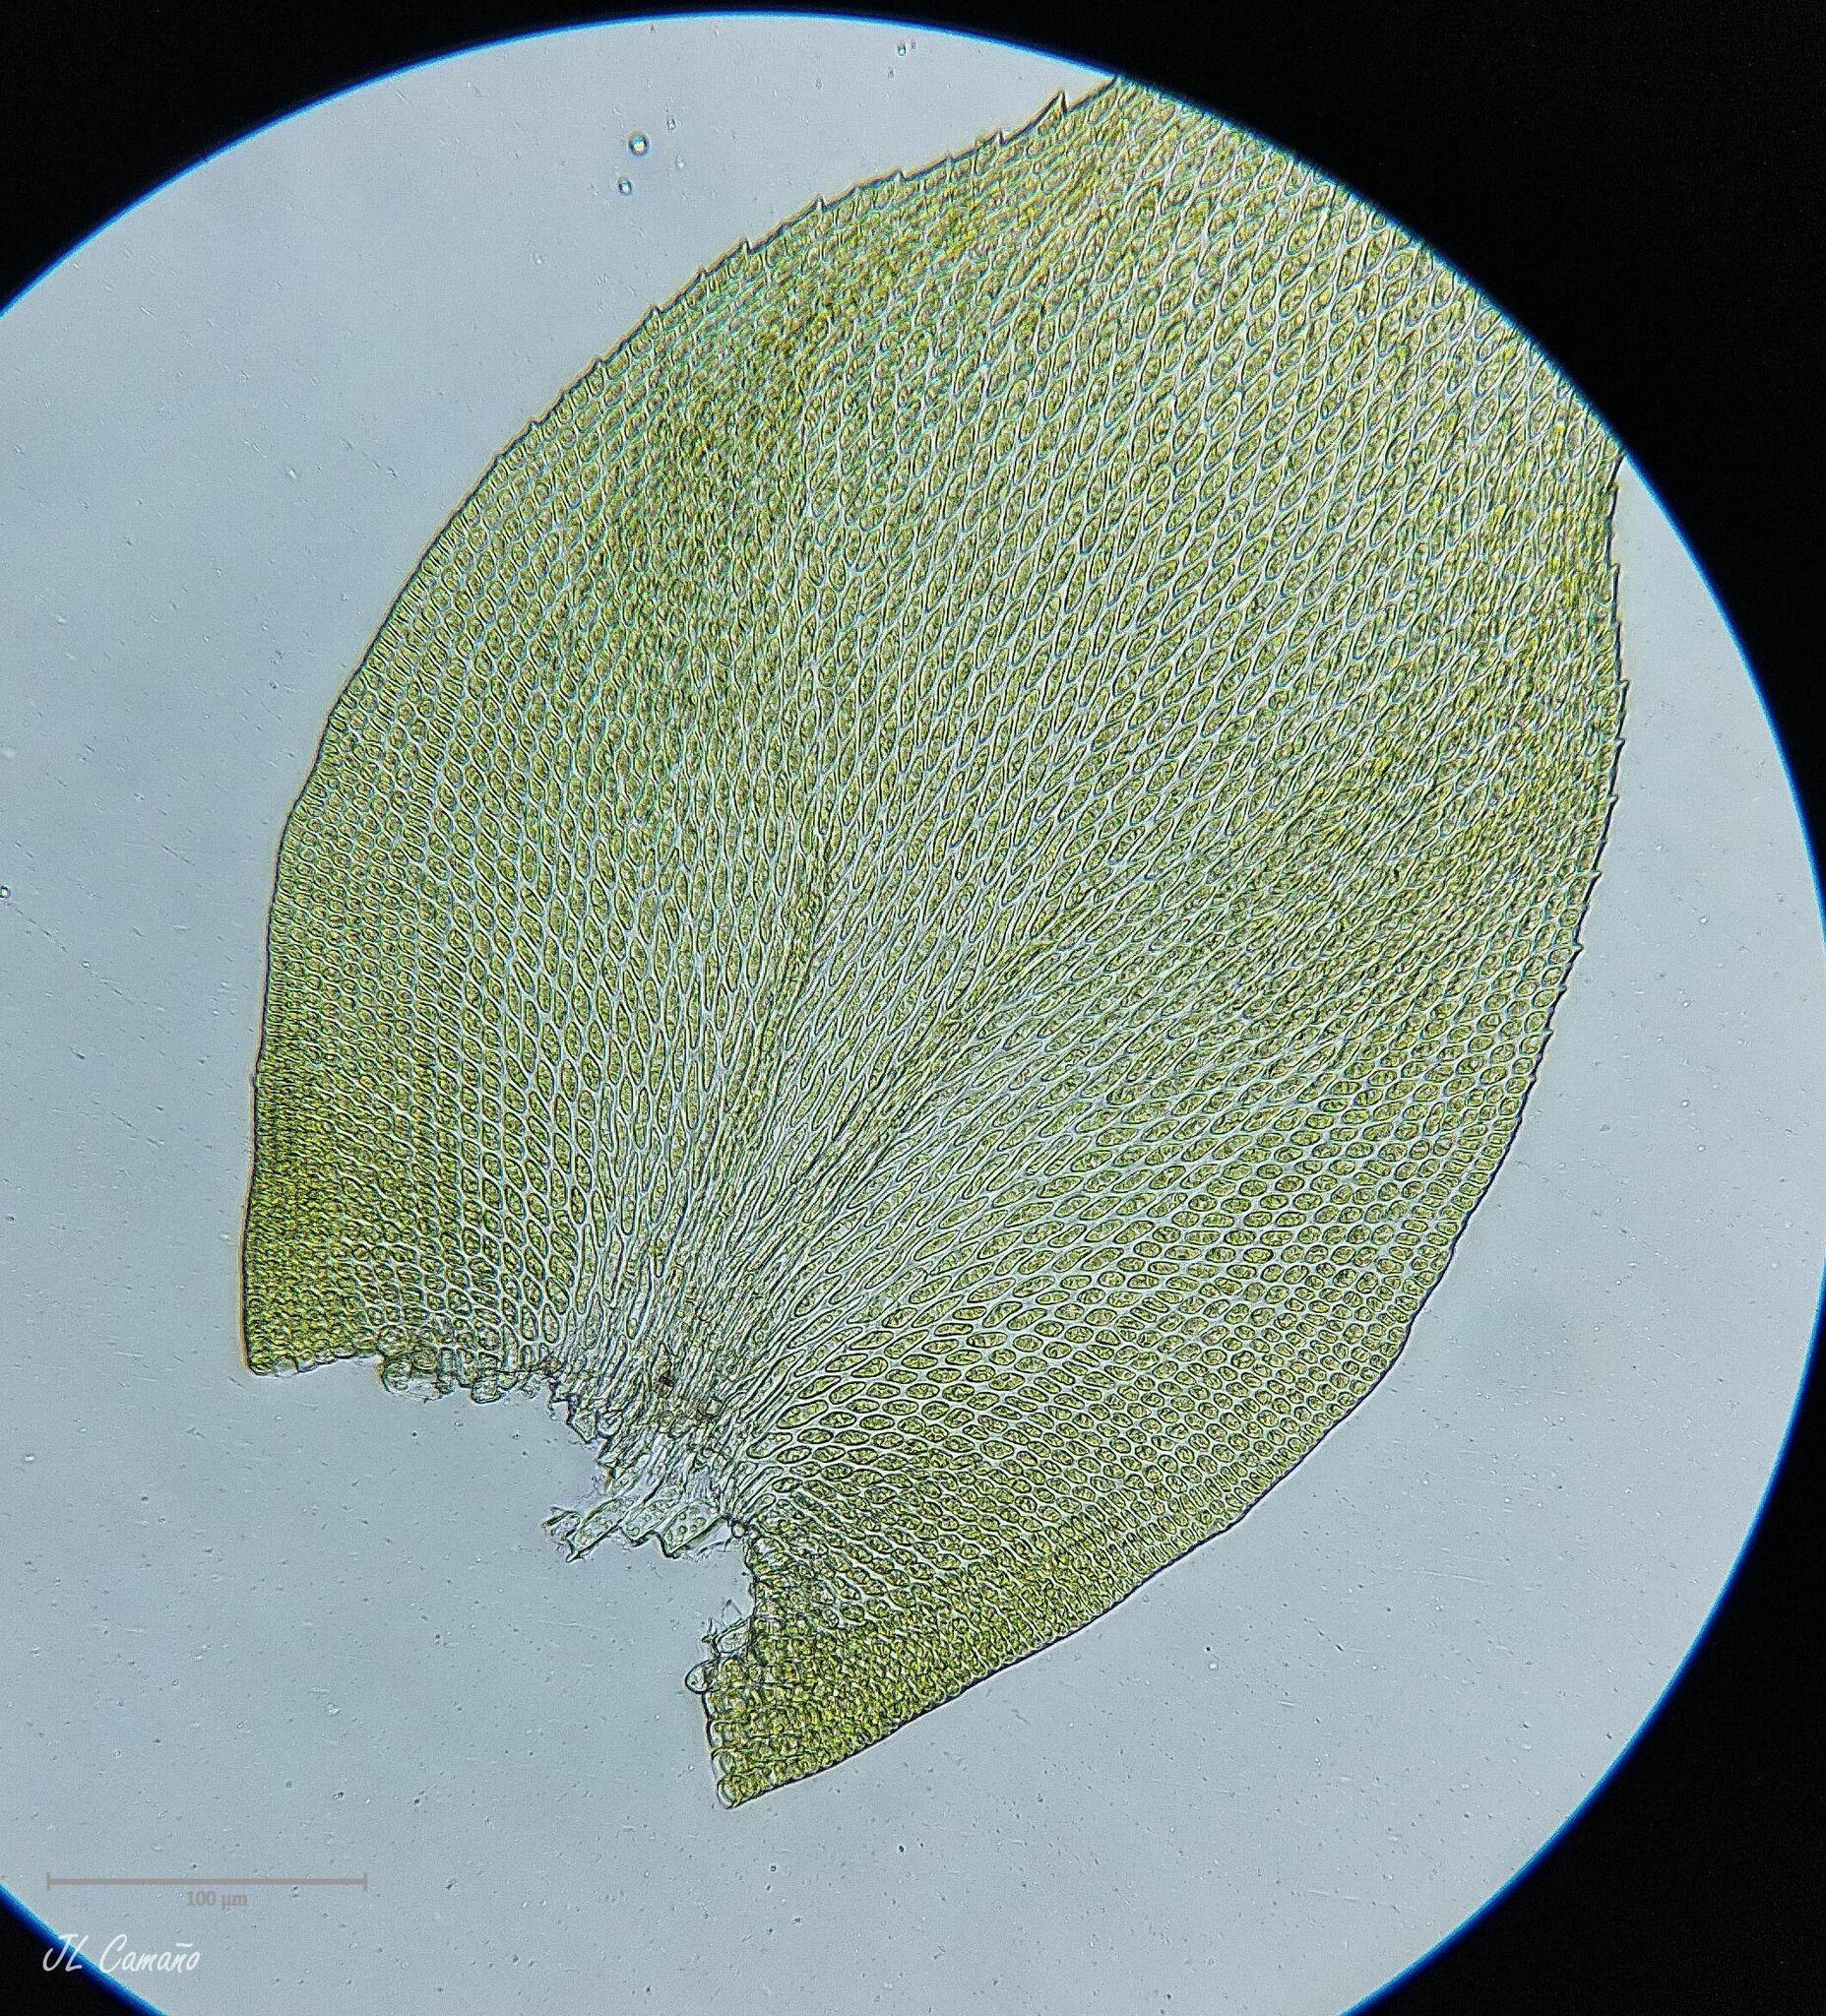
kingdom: Plantae
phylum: Bryophyta
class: Bryopsida
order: Hypnales
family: Lembophyllaceae
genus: Nogopterium
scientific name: Nogopterium gracile
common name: Bird's-foot wing-moss
